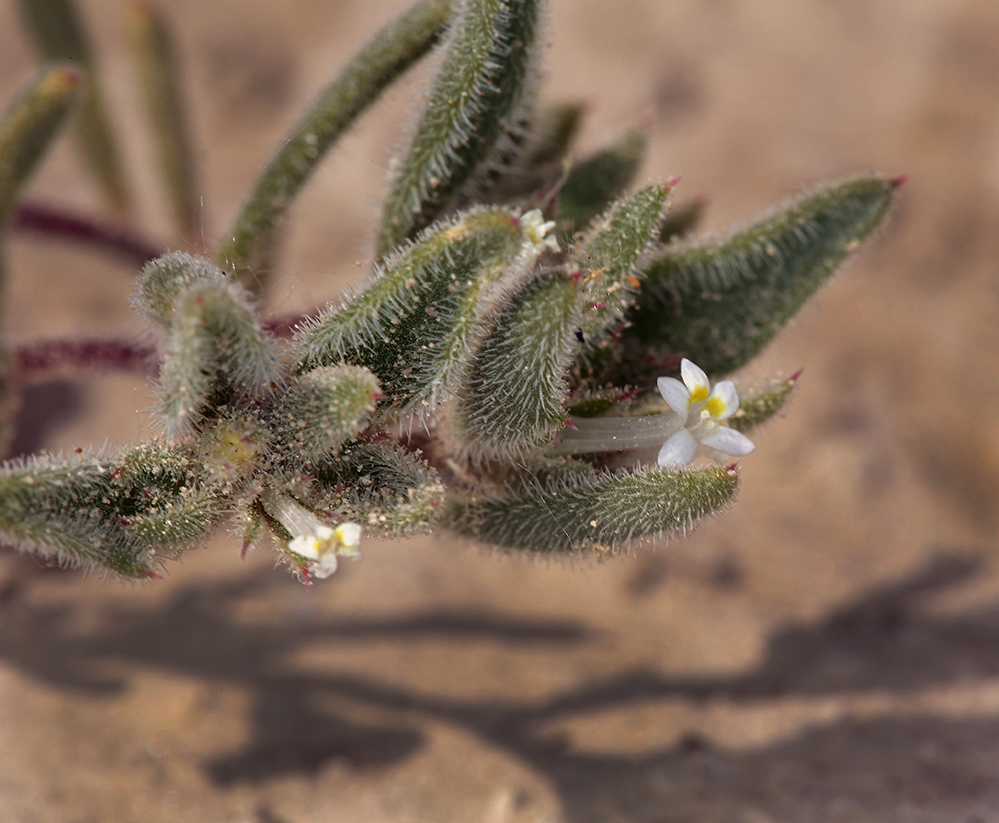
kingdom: Plantae
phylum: Tracheophyta
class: Magnoliopsida
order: Ericales
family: Polemoniaceae
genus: Loeseliastrum
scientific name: Loeseliastrum depressum
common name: Depressed ipomopsis
